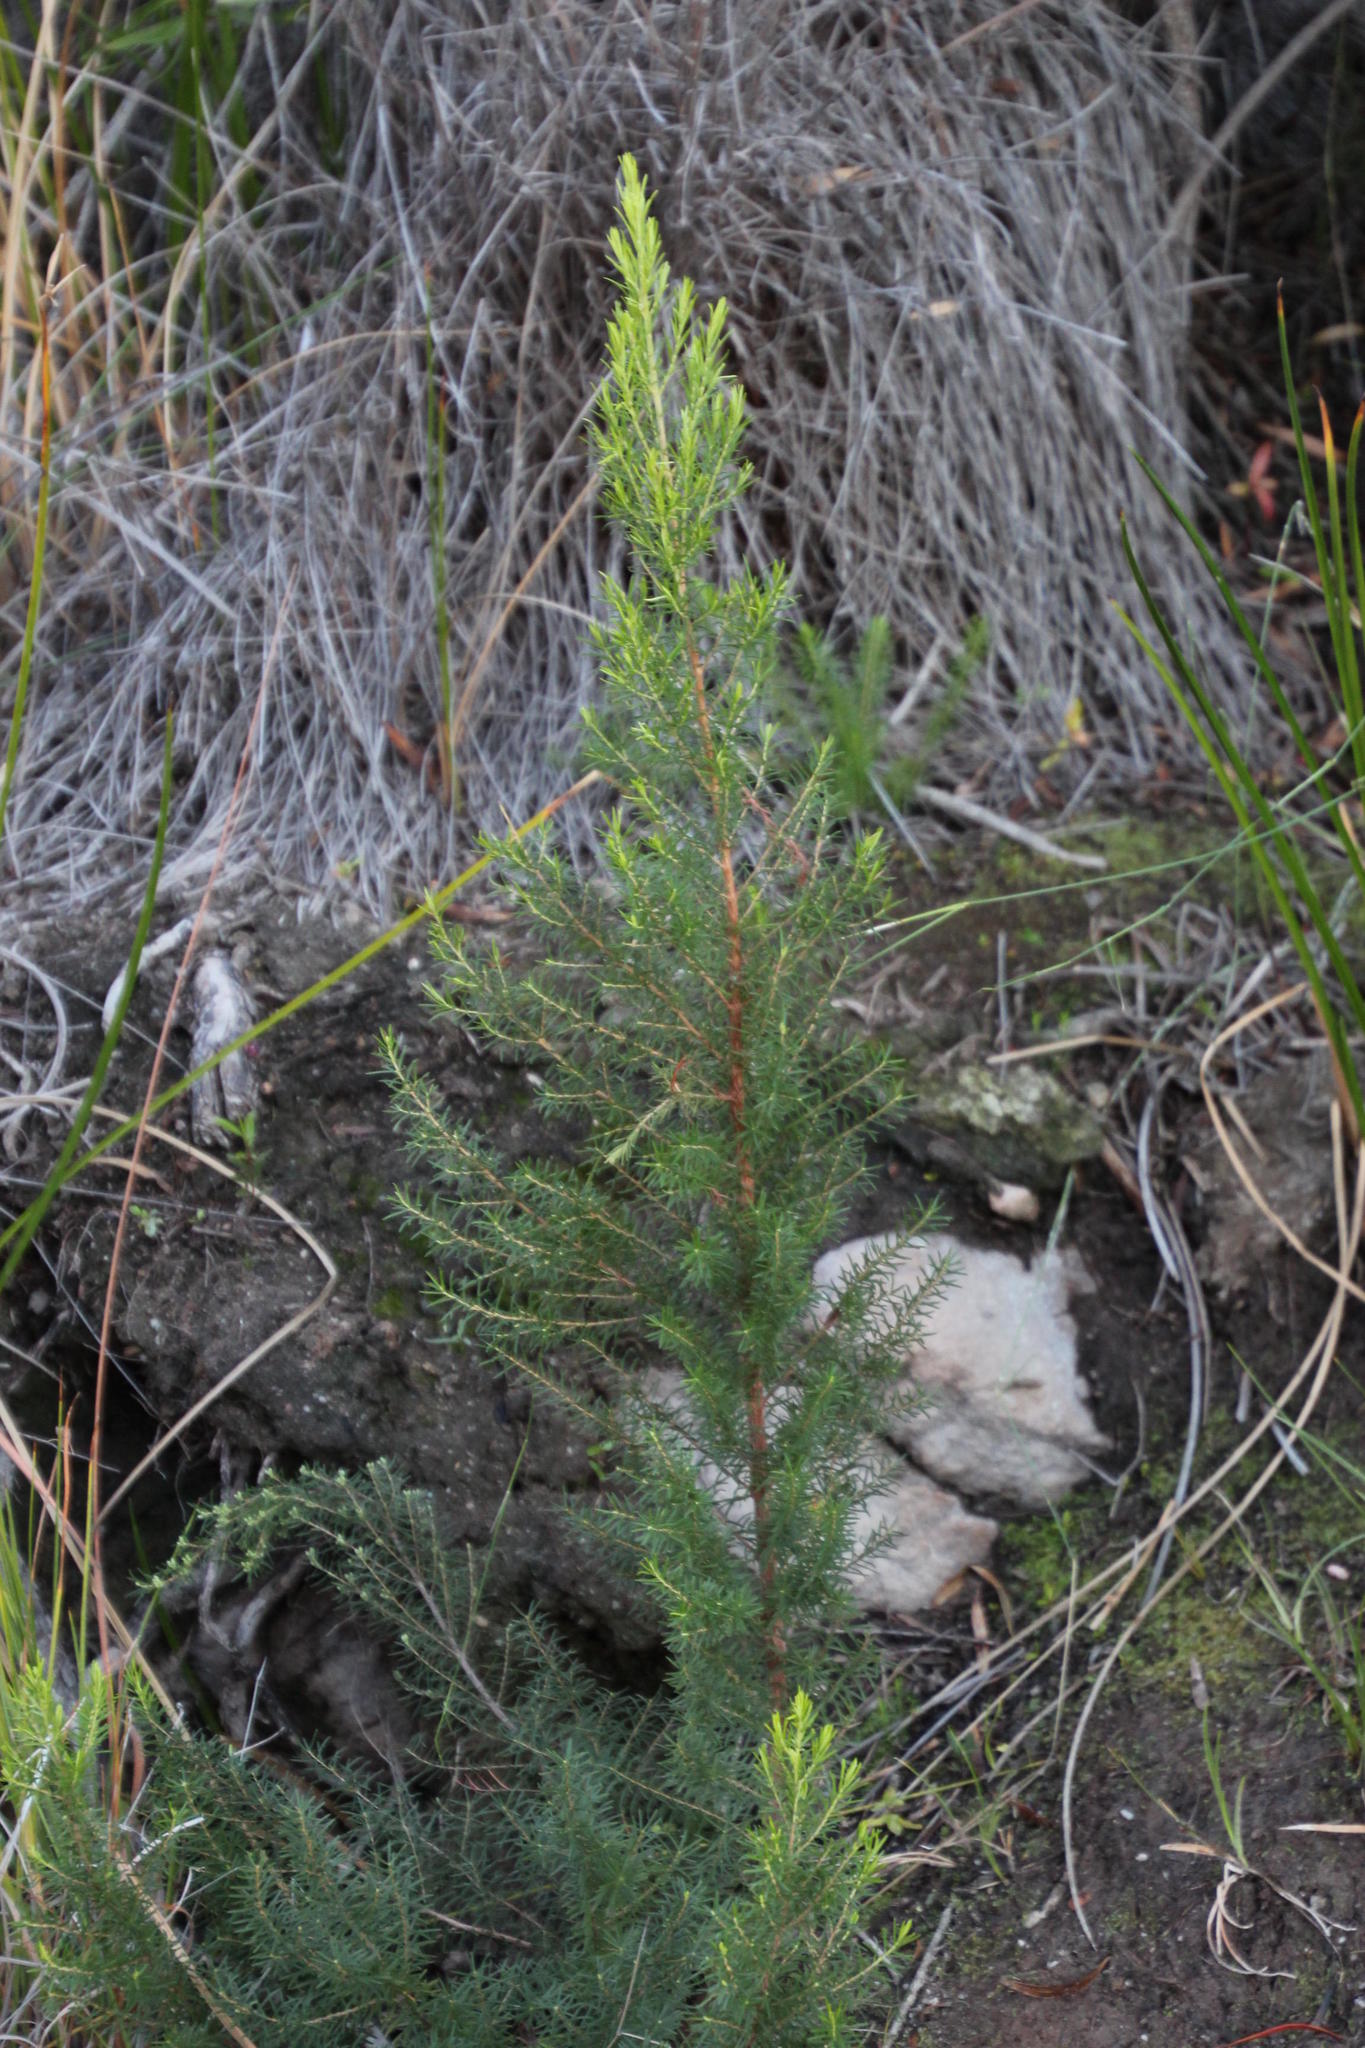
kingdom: Plantae
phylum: Tracheophyta
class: Magnoliopsida
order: Ericales
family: Ericaceae
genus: Erica
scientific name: Erica caffra
